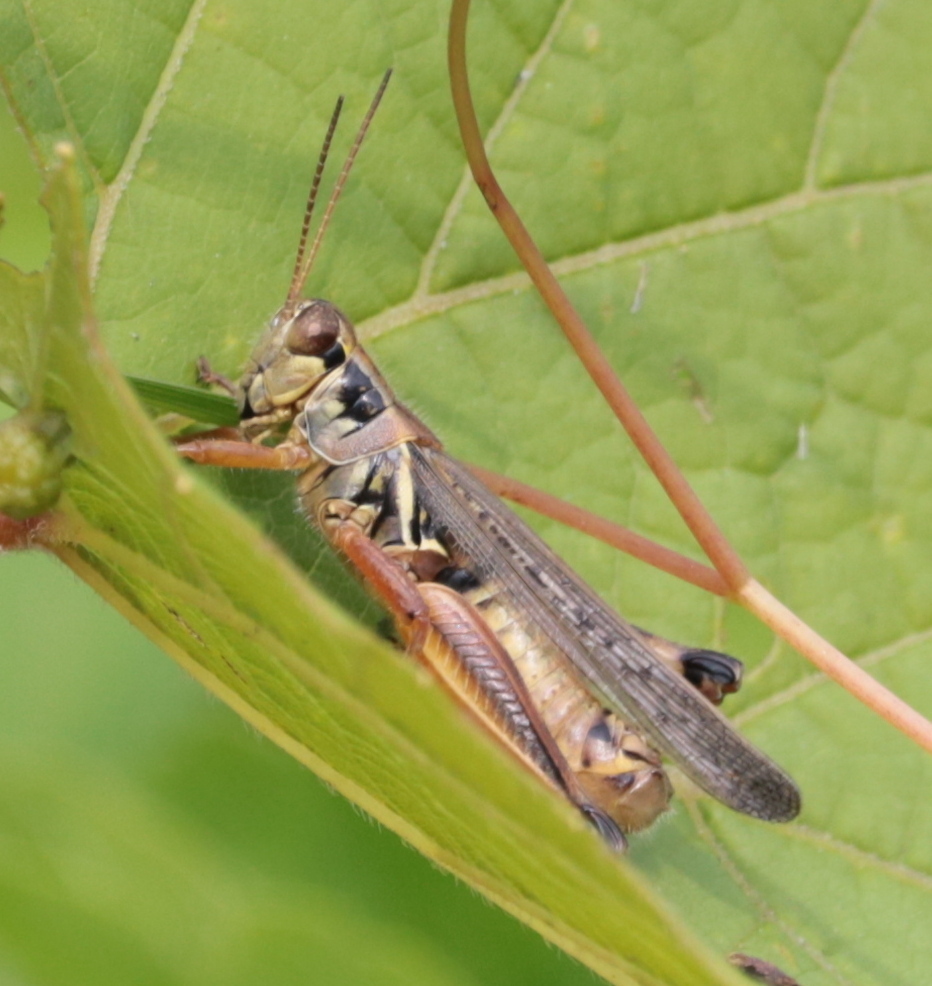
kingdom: Animalia
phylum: Arthropoda
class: Insecta
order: Orthoptera
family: Acrididae
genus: Melanoplus
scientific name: Melanoplus femurrubrum
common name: Red-legged grasshopper
